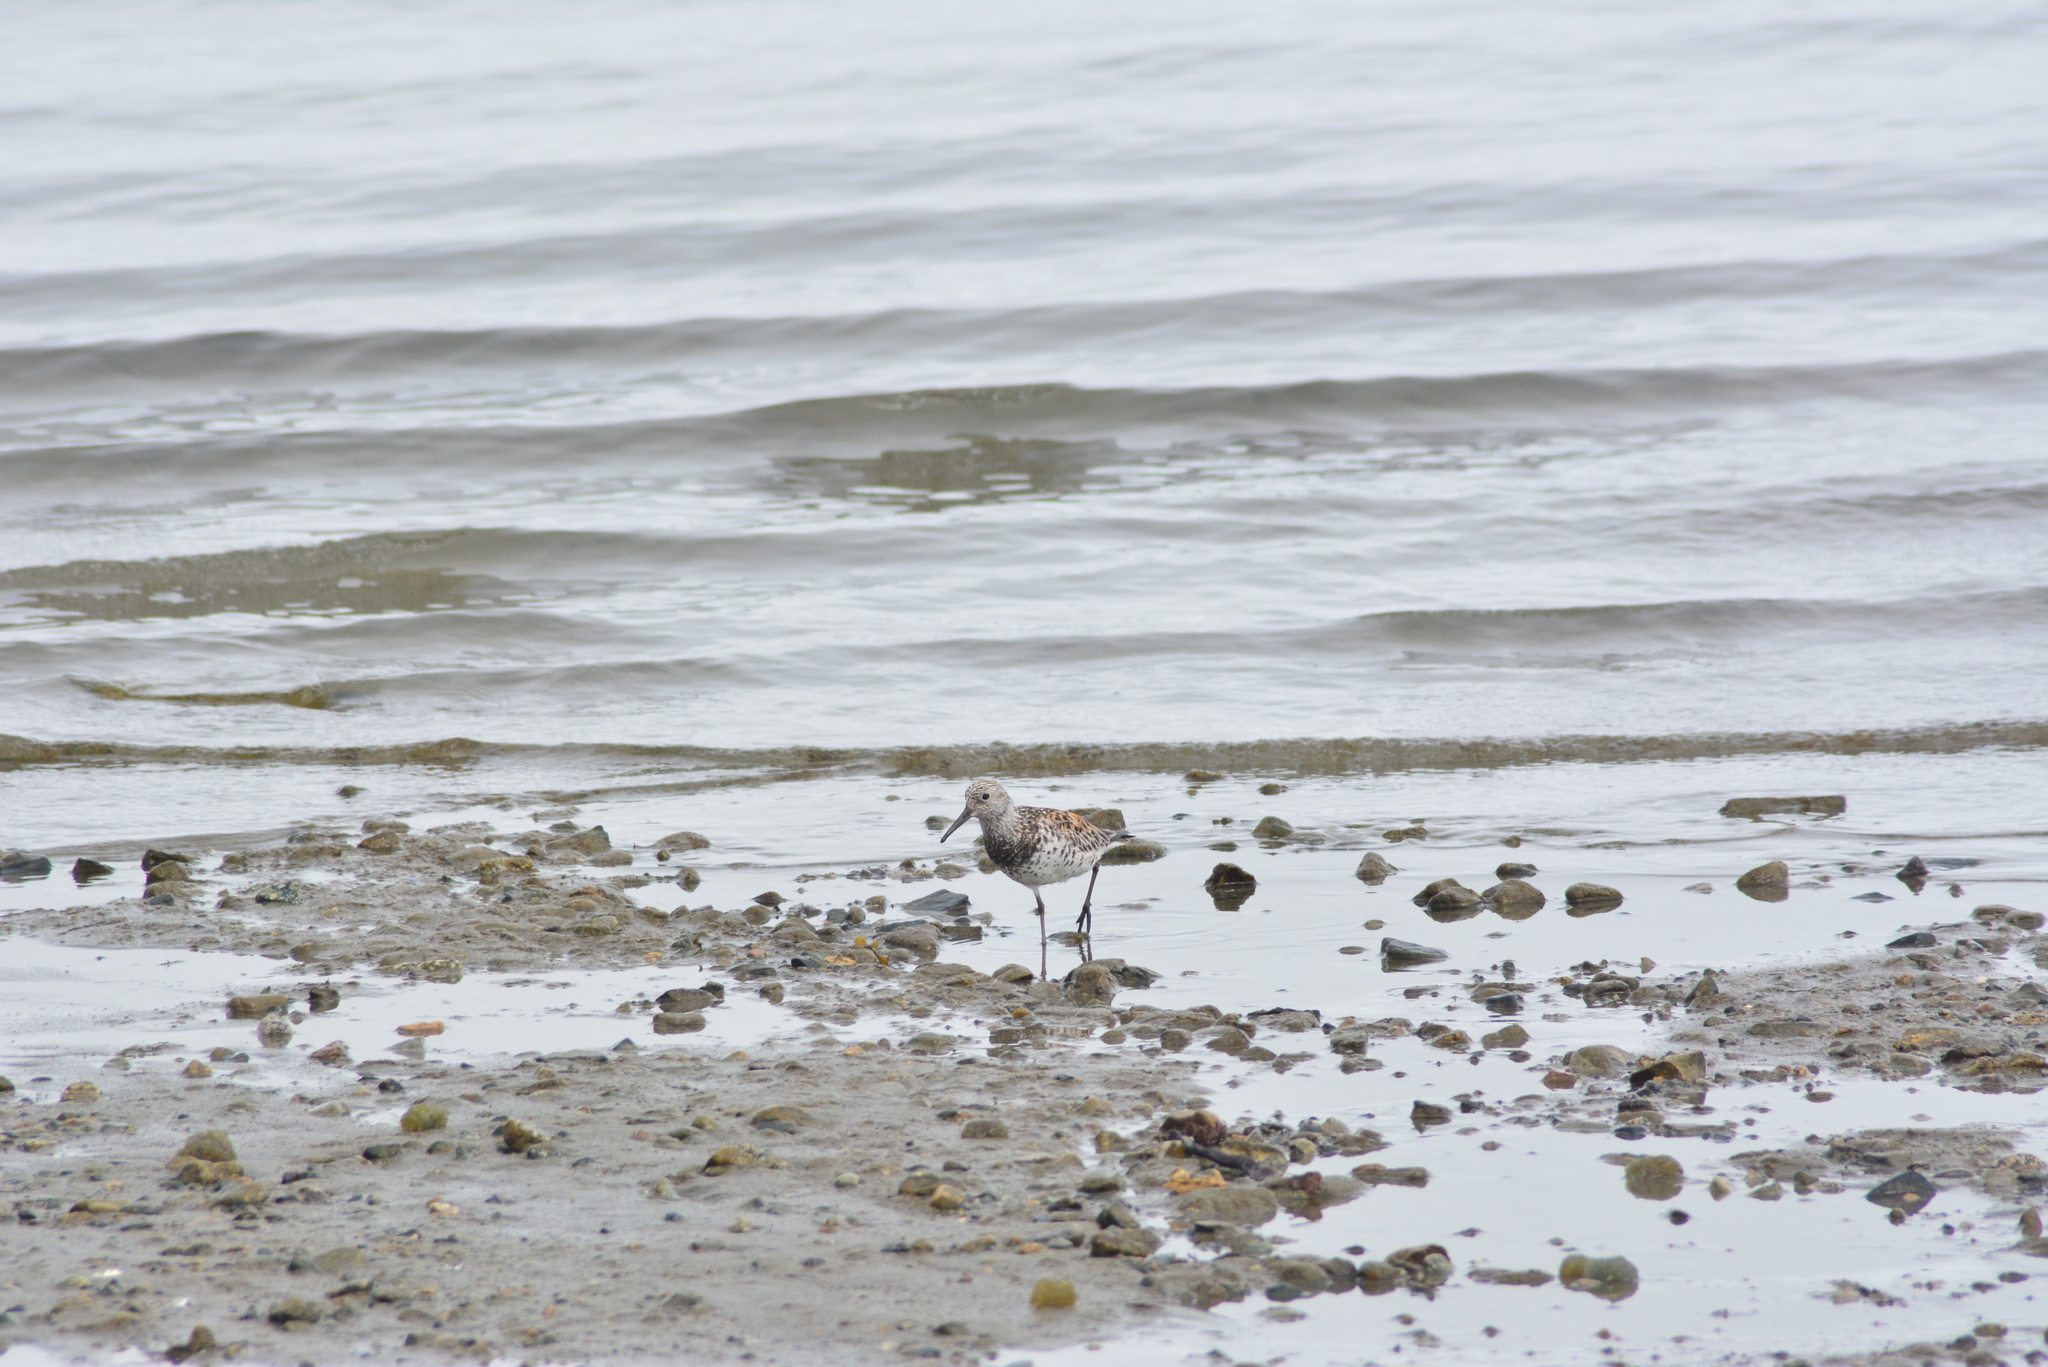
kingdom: Animalia
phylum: Chordata
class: Aves
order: Charadriiformes
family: Scolopacidae
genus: Calidris
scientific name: Calidris tenuirostris
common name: Great knot
